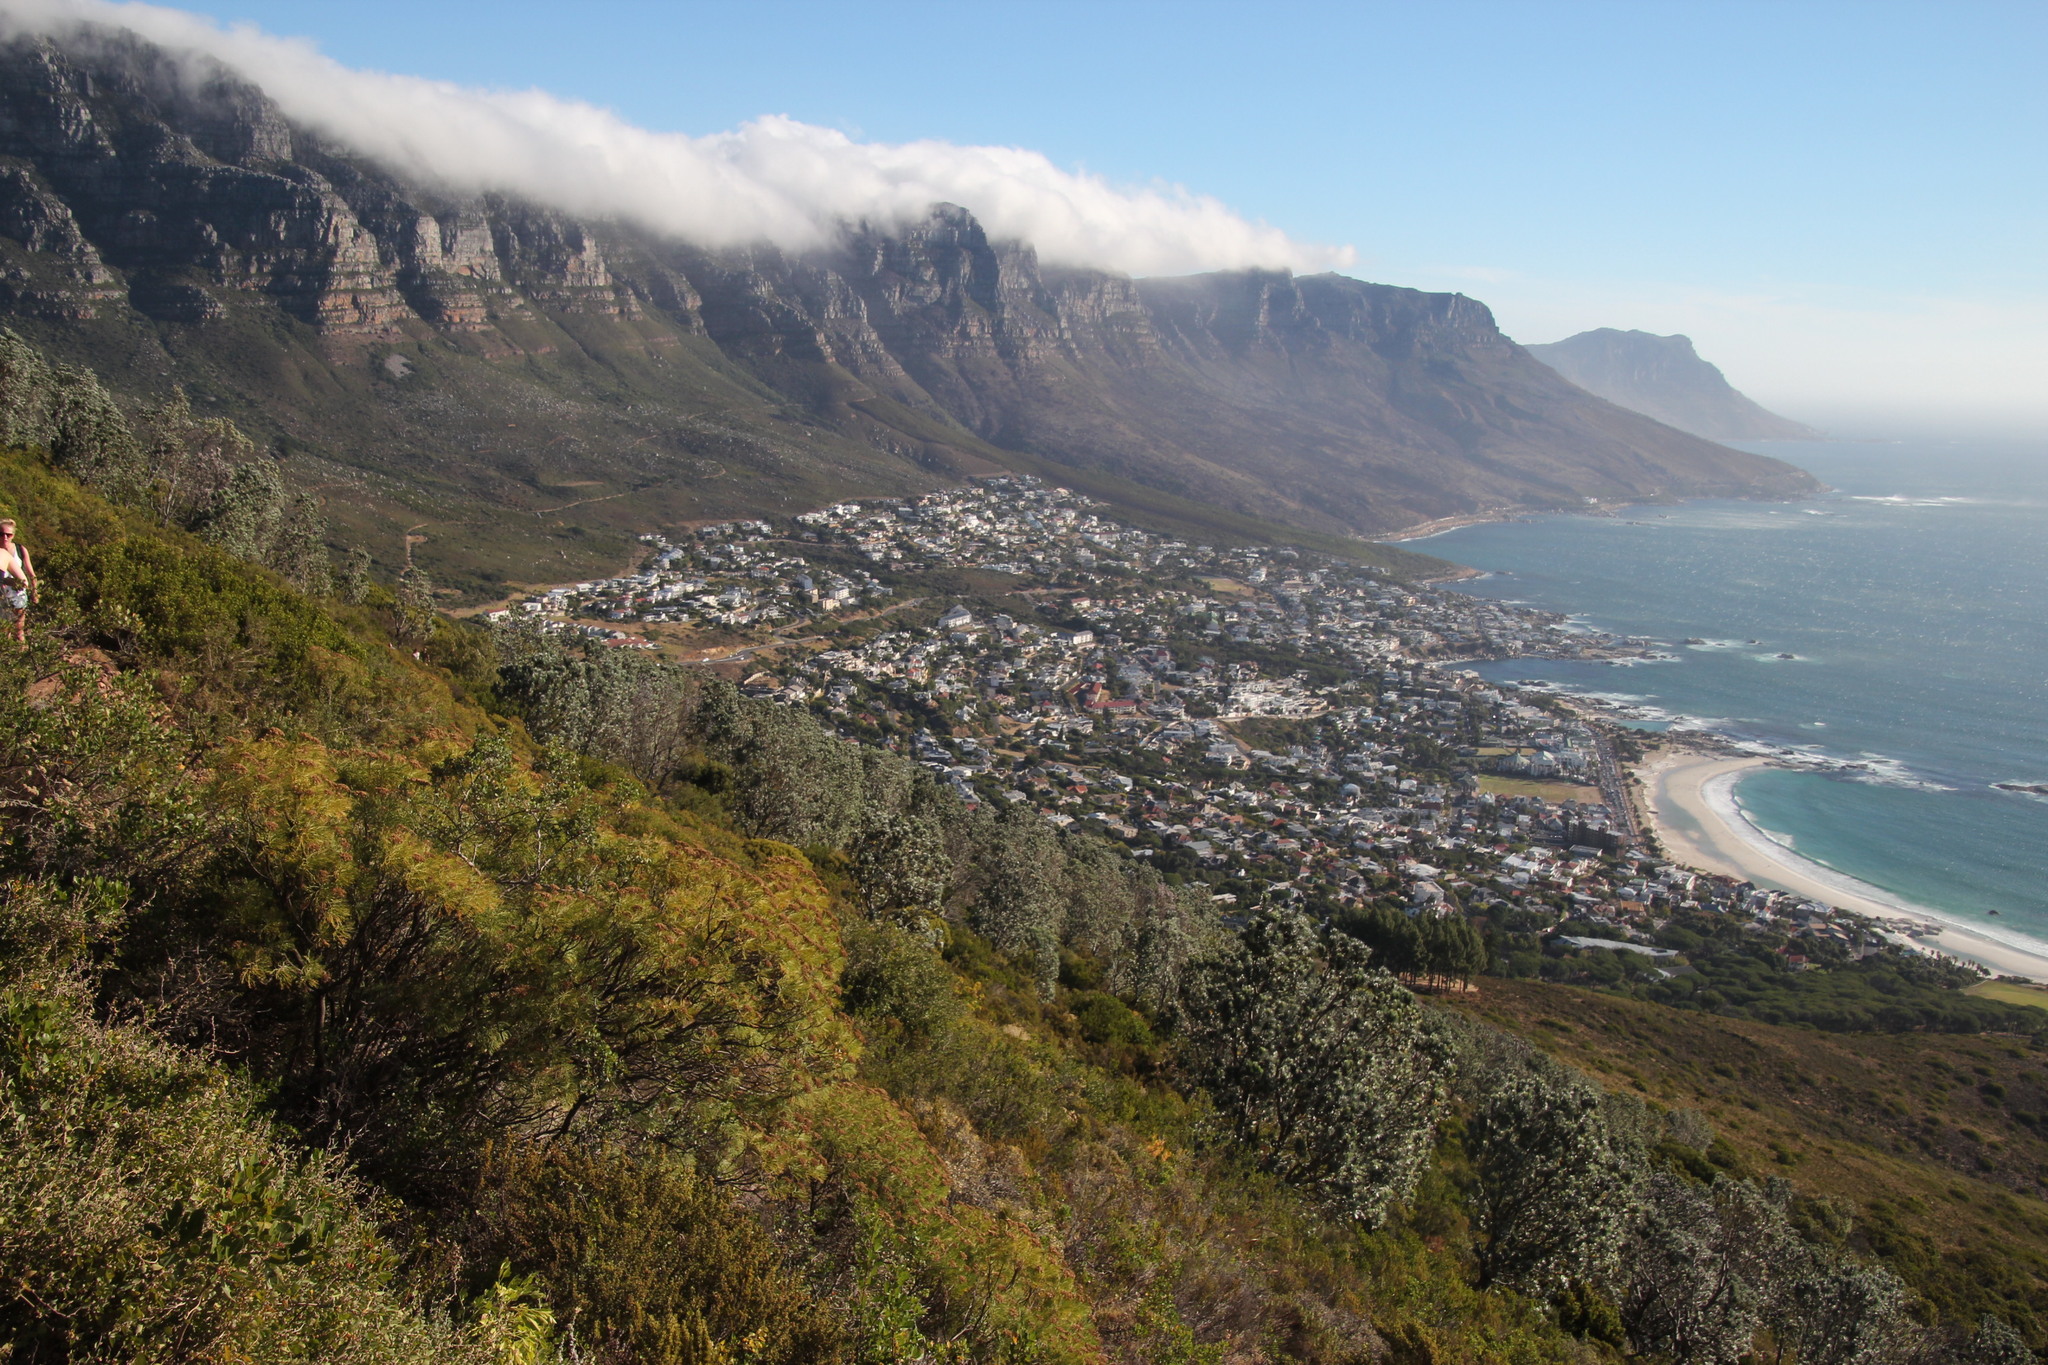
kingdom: Plantae
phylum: Tracheophyta
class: Magnoliopsida
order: Proteales
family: Proteaceae
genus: Leucadendron
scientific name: Leucadendron argenteum
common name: Cape silver tree
